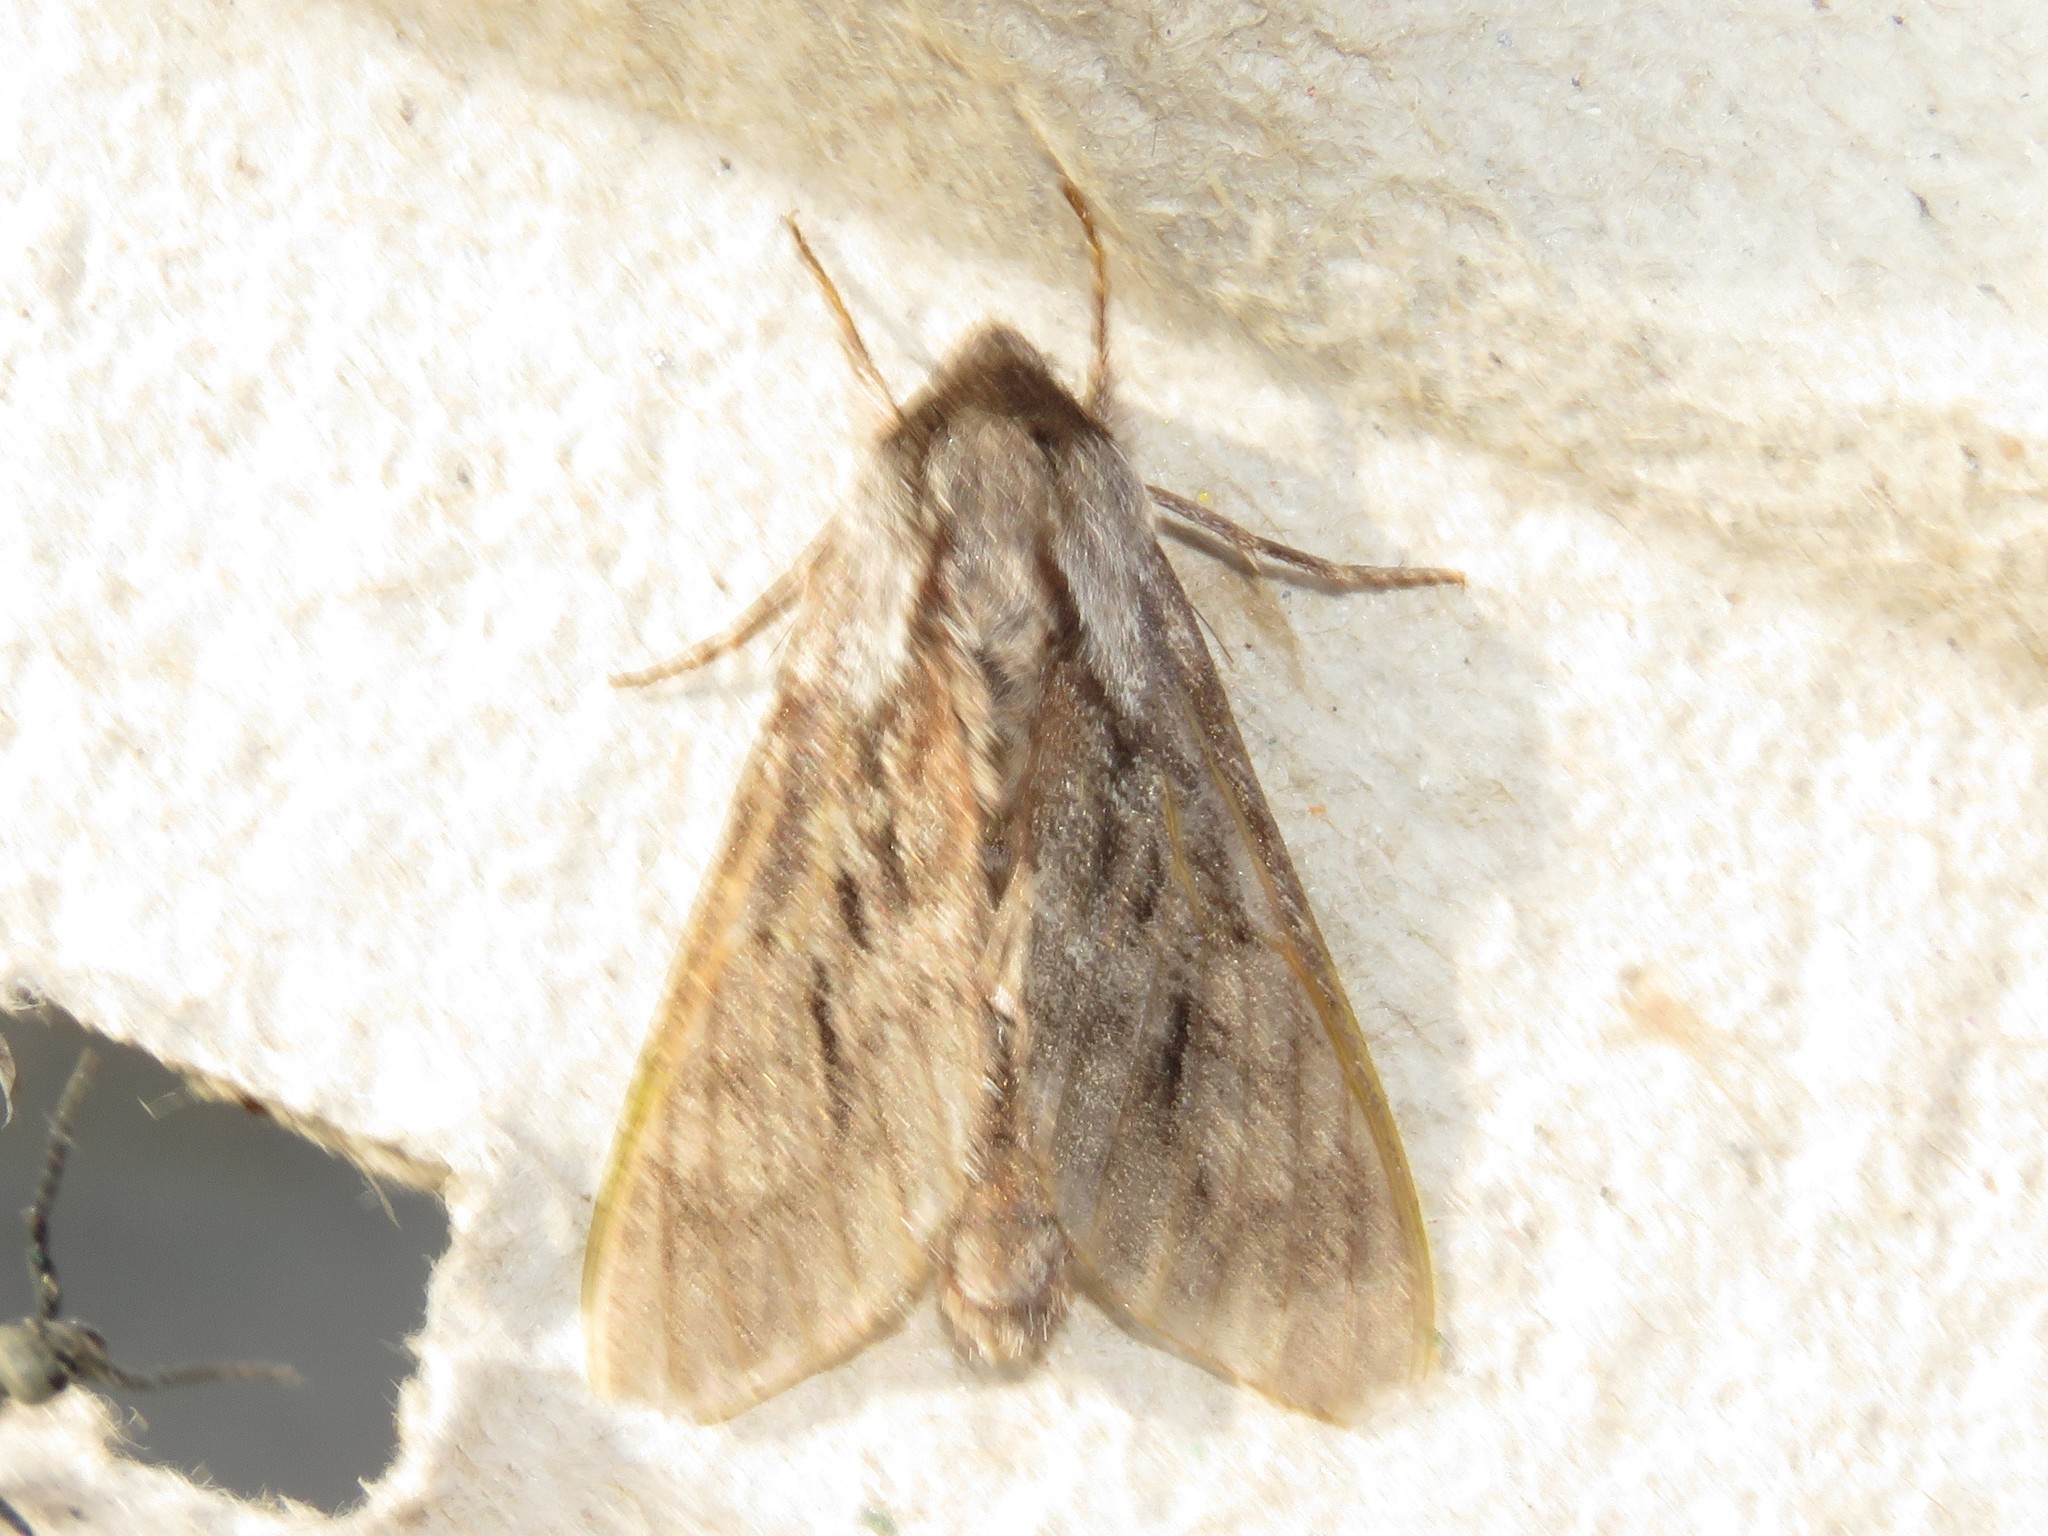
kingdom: Animalia
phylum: Arthropoda
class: Insecta
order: Lepidoptera
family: Sphingidae
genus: Lapara
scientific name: Lapara bombycoides
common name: Northern pine sphinx
